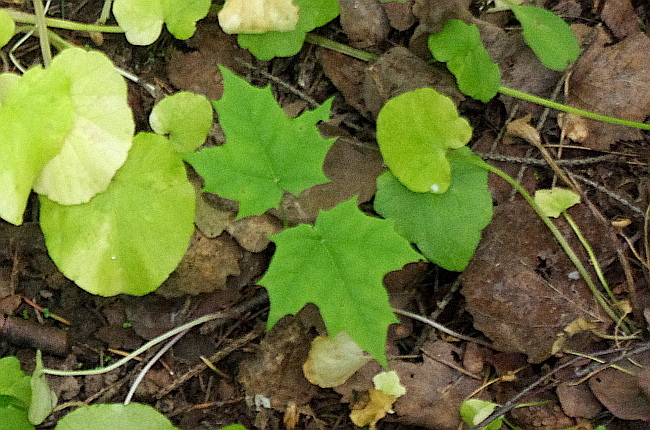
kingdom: Plantae
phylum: Tracheophyta
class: Magnoliopsida
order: Sapindales
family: Sapindaceae
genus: Acer
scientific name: Acer platanoides
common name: Norway maple
